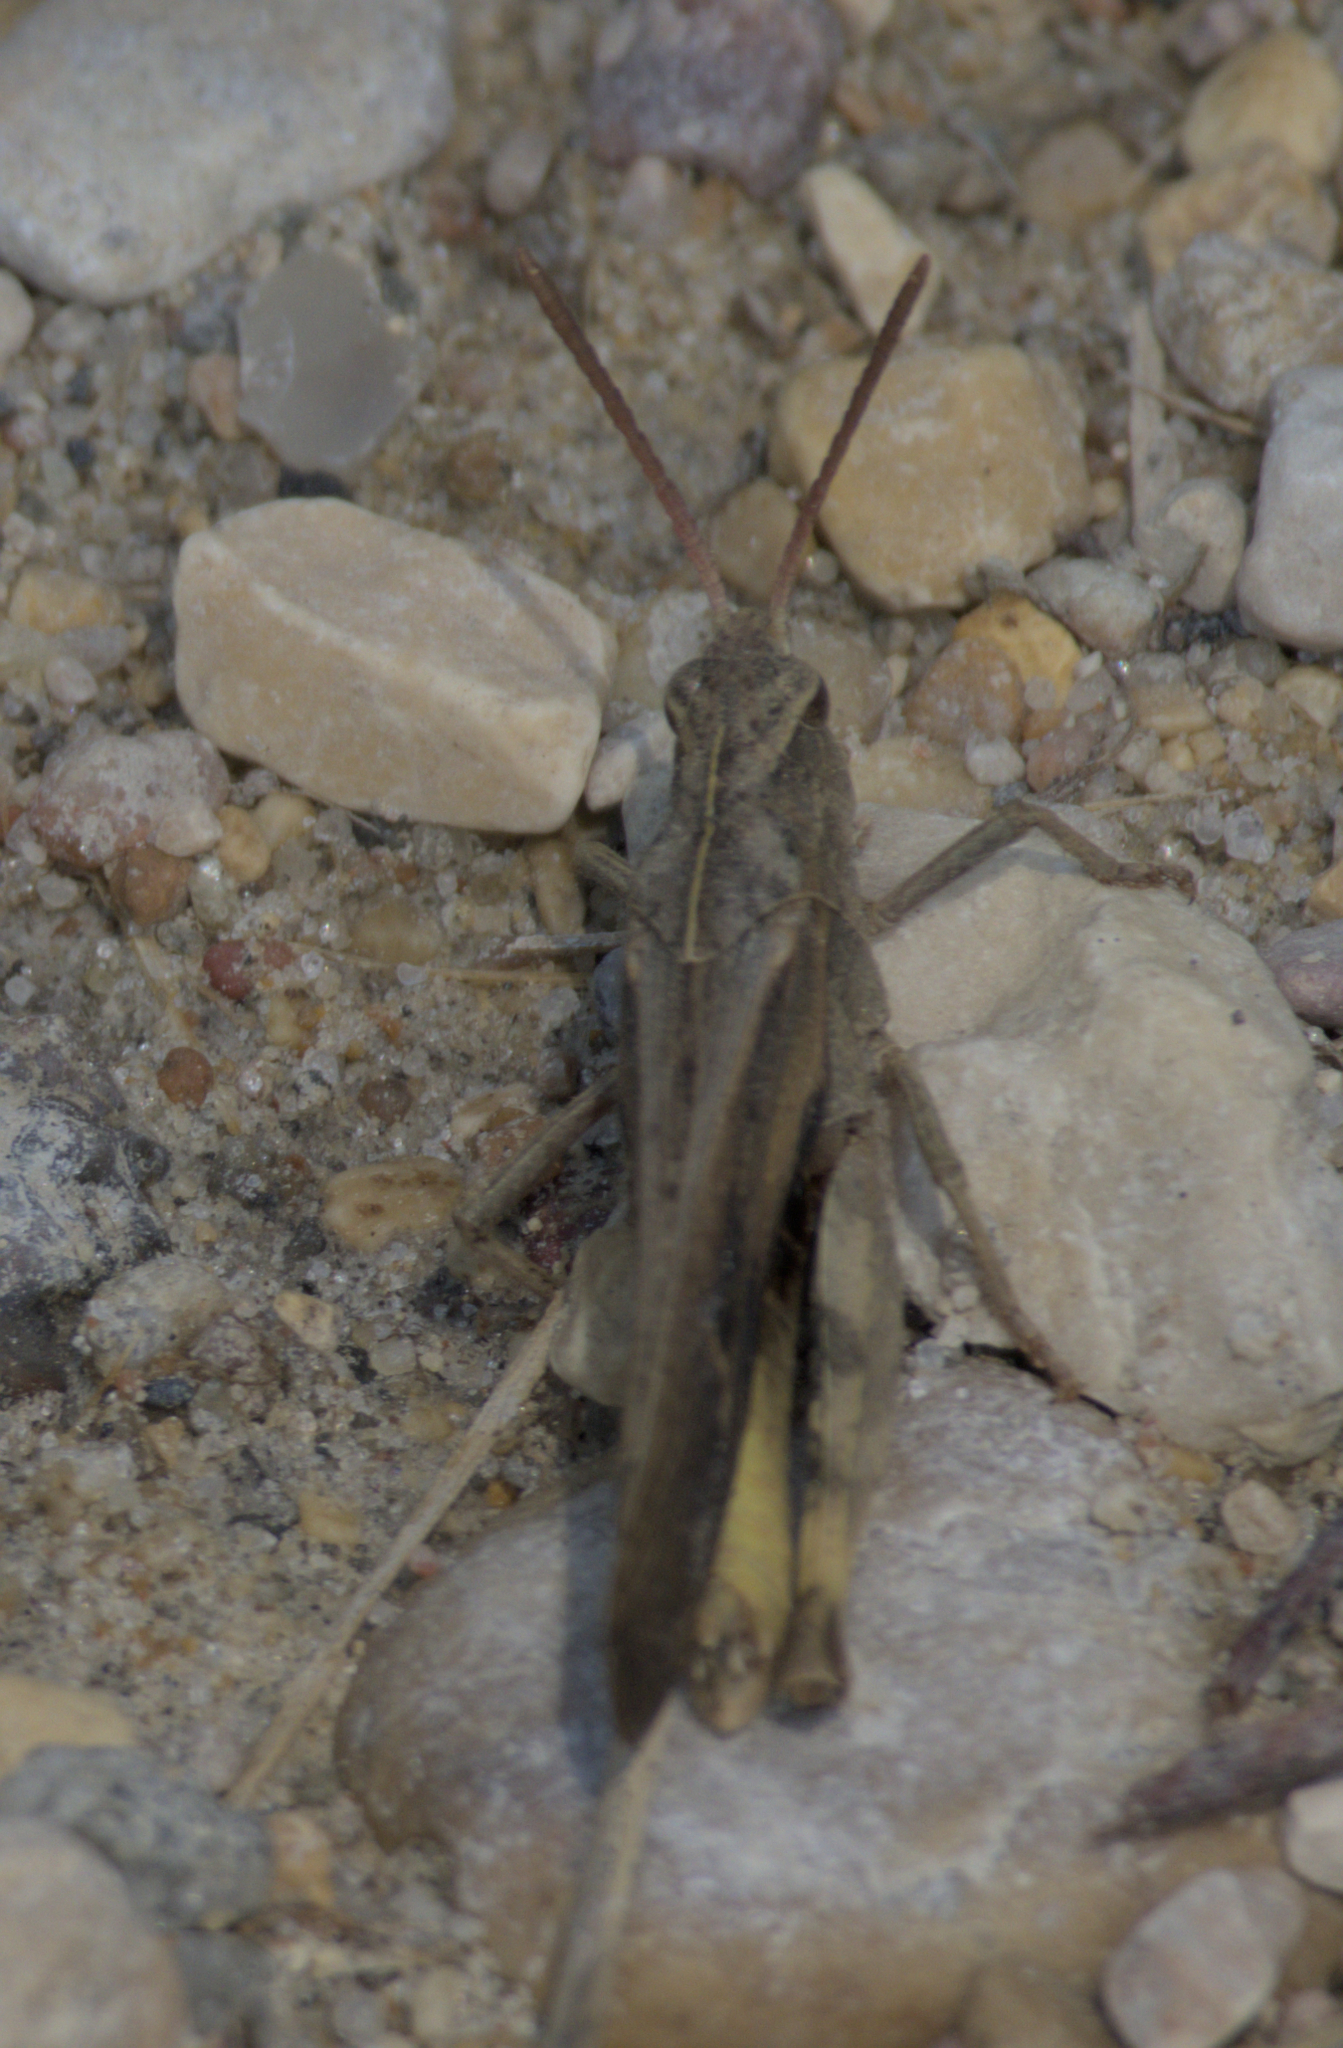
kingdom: Animalia
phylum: Arthropoda
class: Insecta
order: Orthoptera
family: Acrididae
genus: Chortophaga
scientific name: Chortophaga viridifasciata
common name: Green-striped grasshopper
